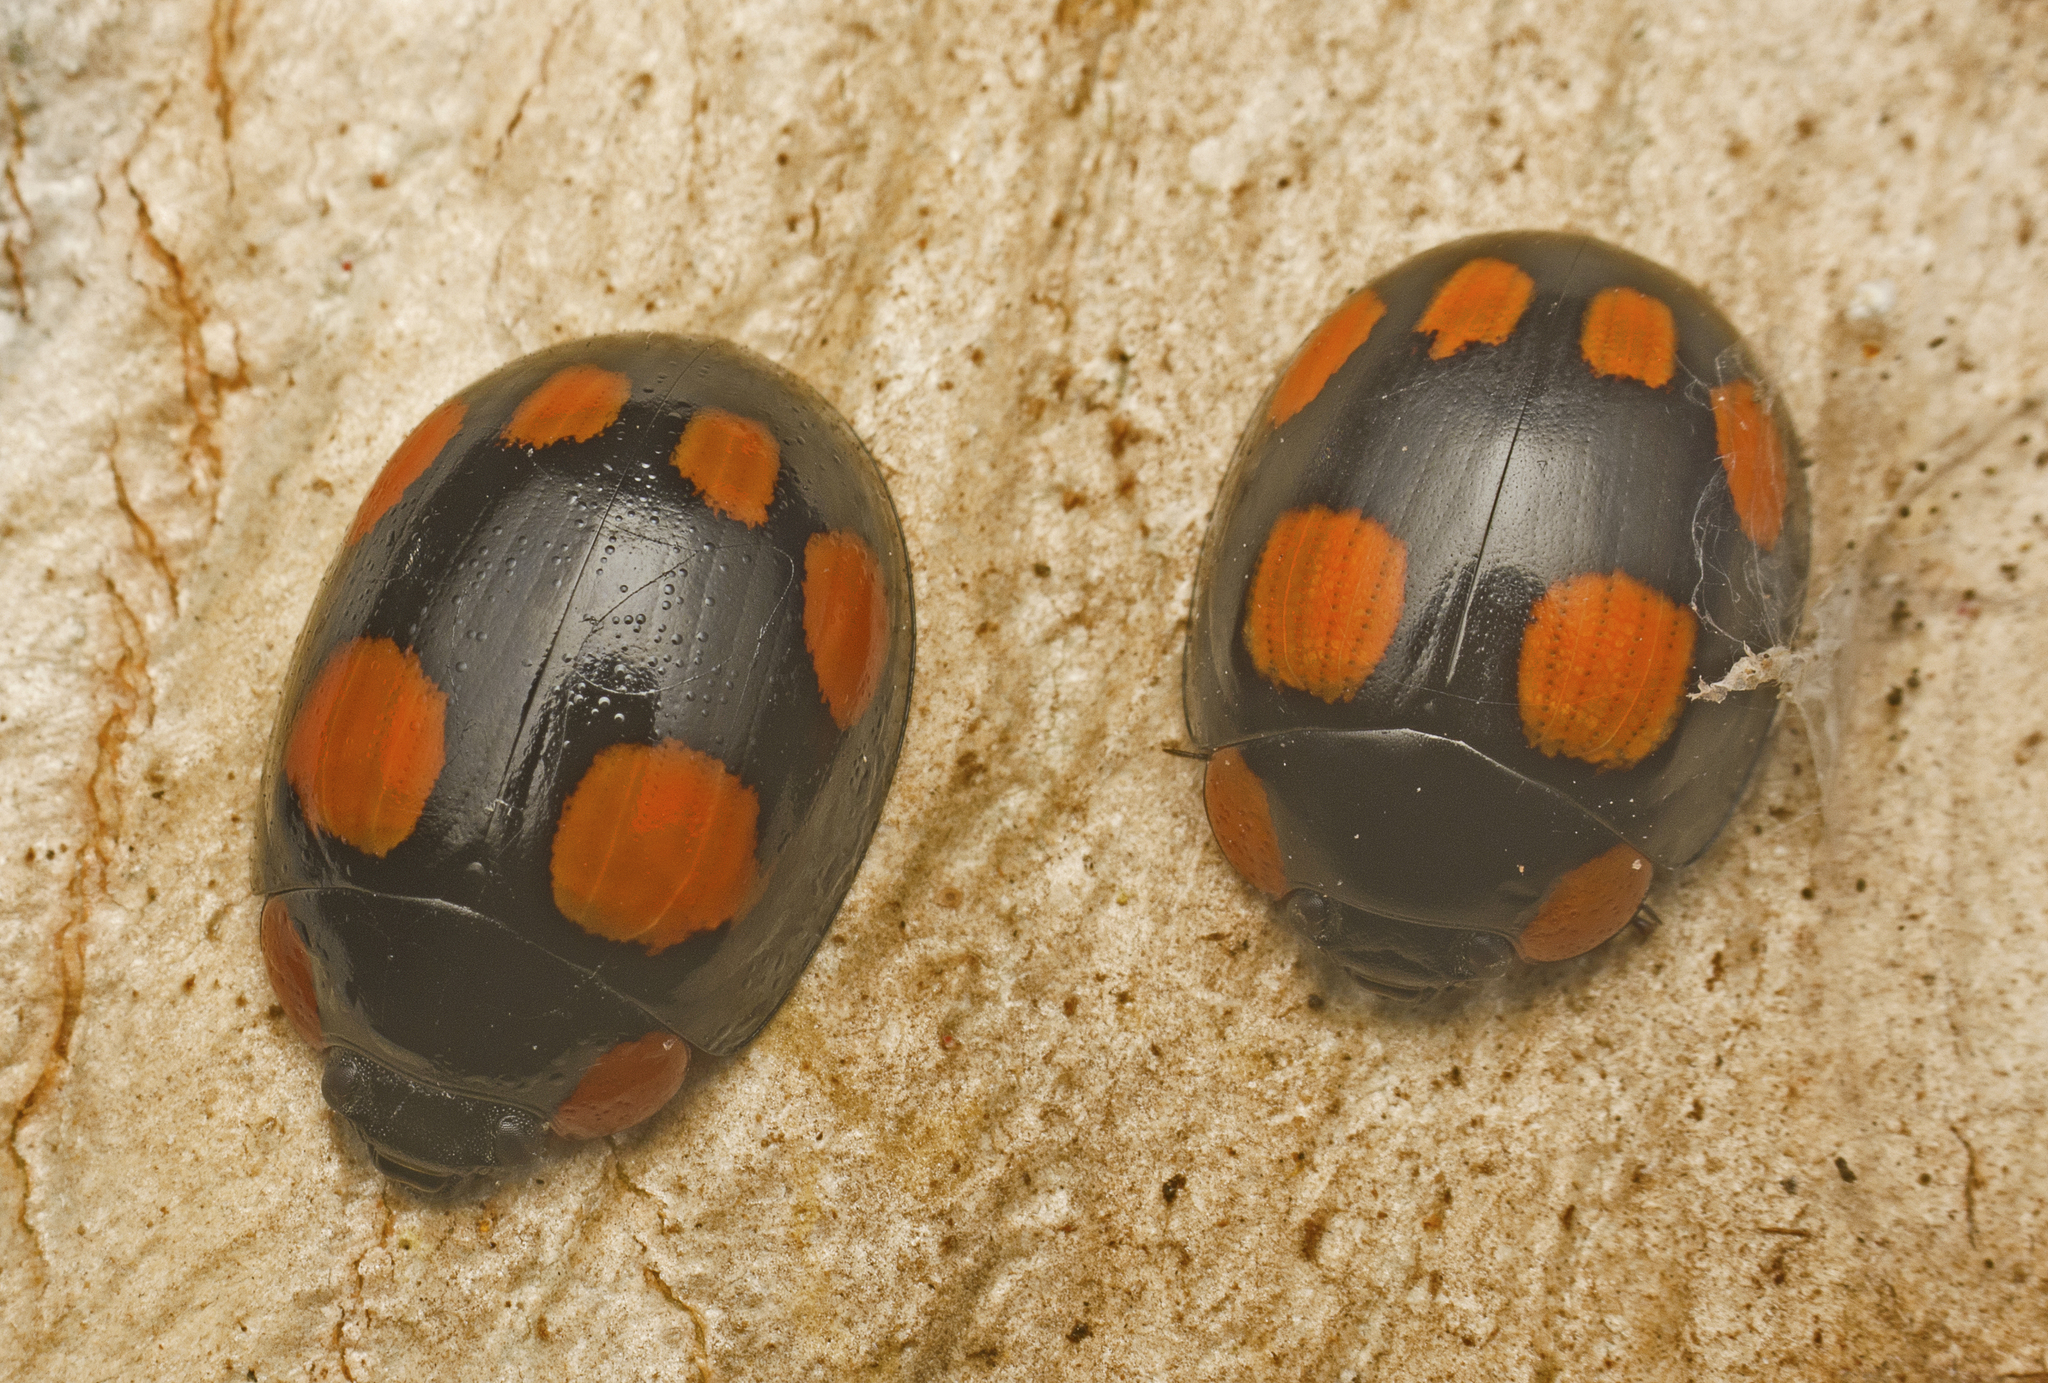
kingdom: Animalia
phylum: Arthropoda
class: Insecta
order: Coleoptera
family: Chrysomelidae
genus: Paropsisterna
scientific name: Paropsisterna
